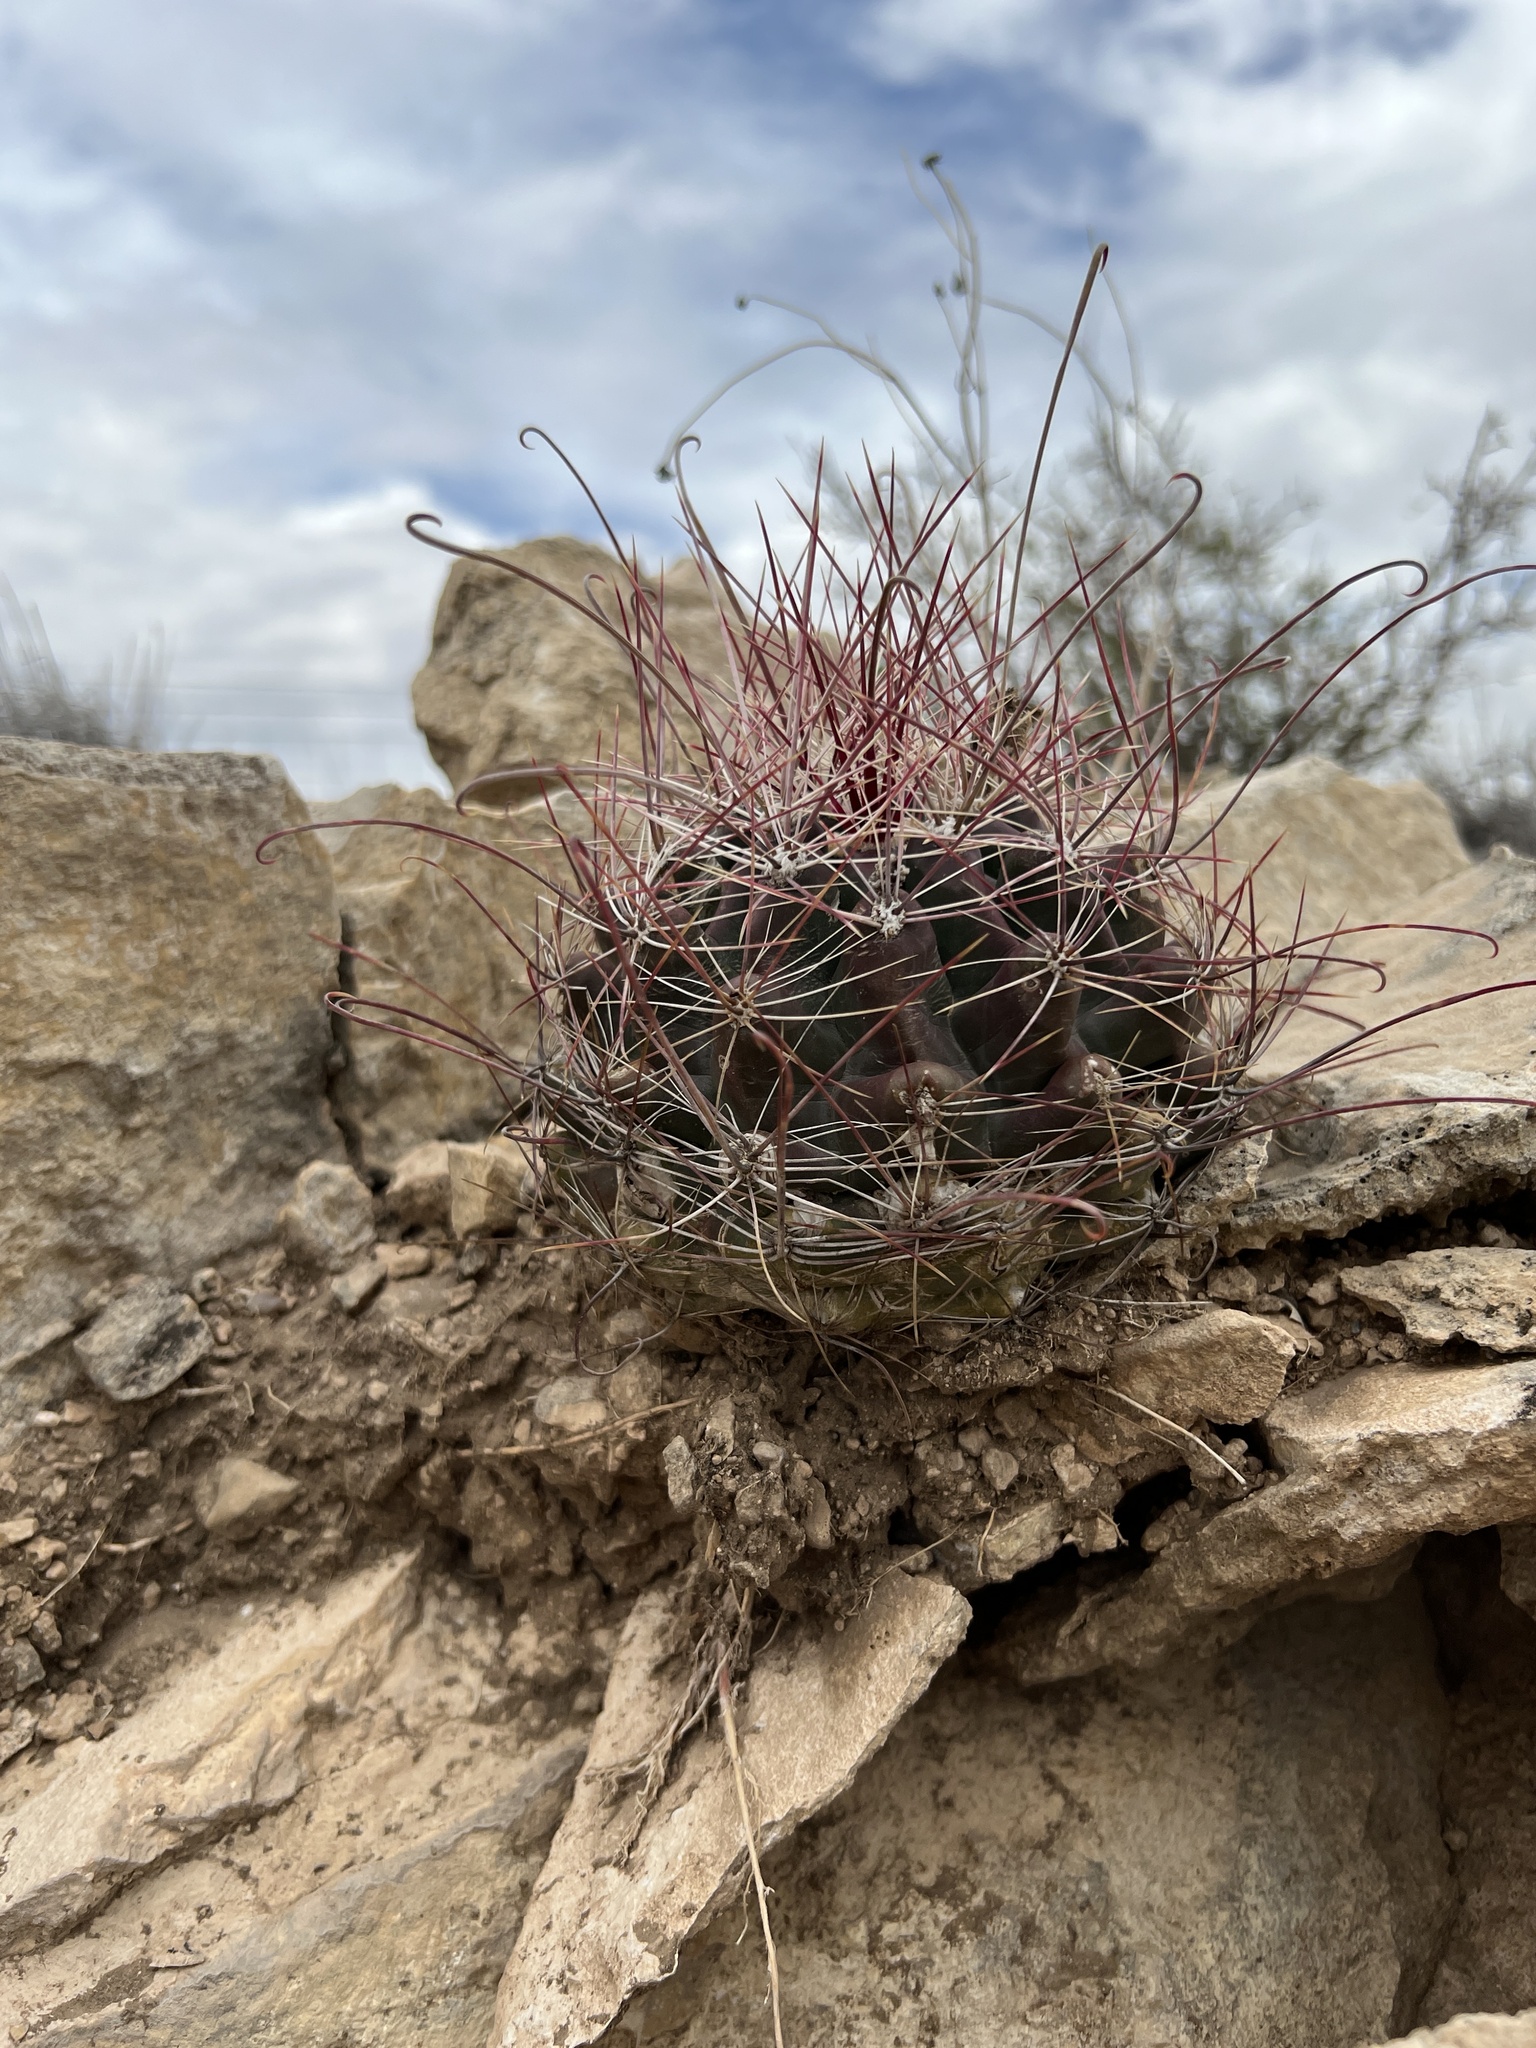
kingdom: Plantae
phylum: Tracheophyta
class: Magnoliopsida
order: Caryophyllales
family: Cactaceae
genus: Bisnaga
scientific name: Bisnaga hamatacantha
